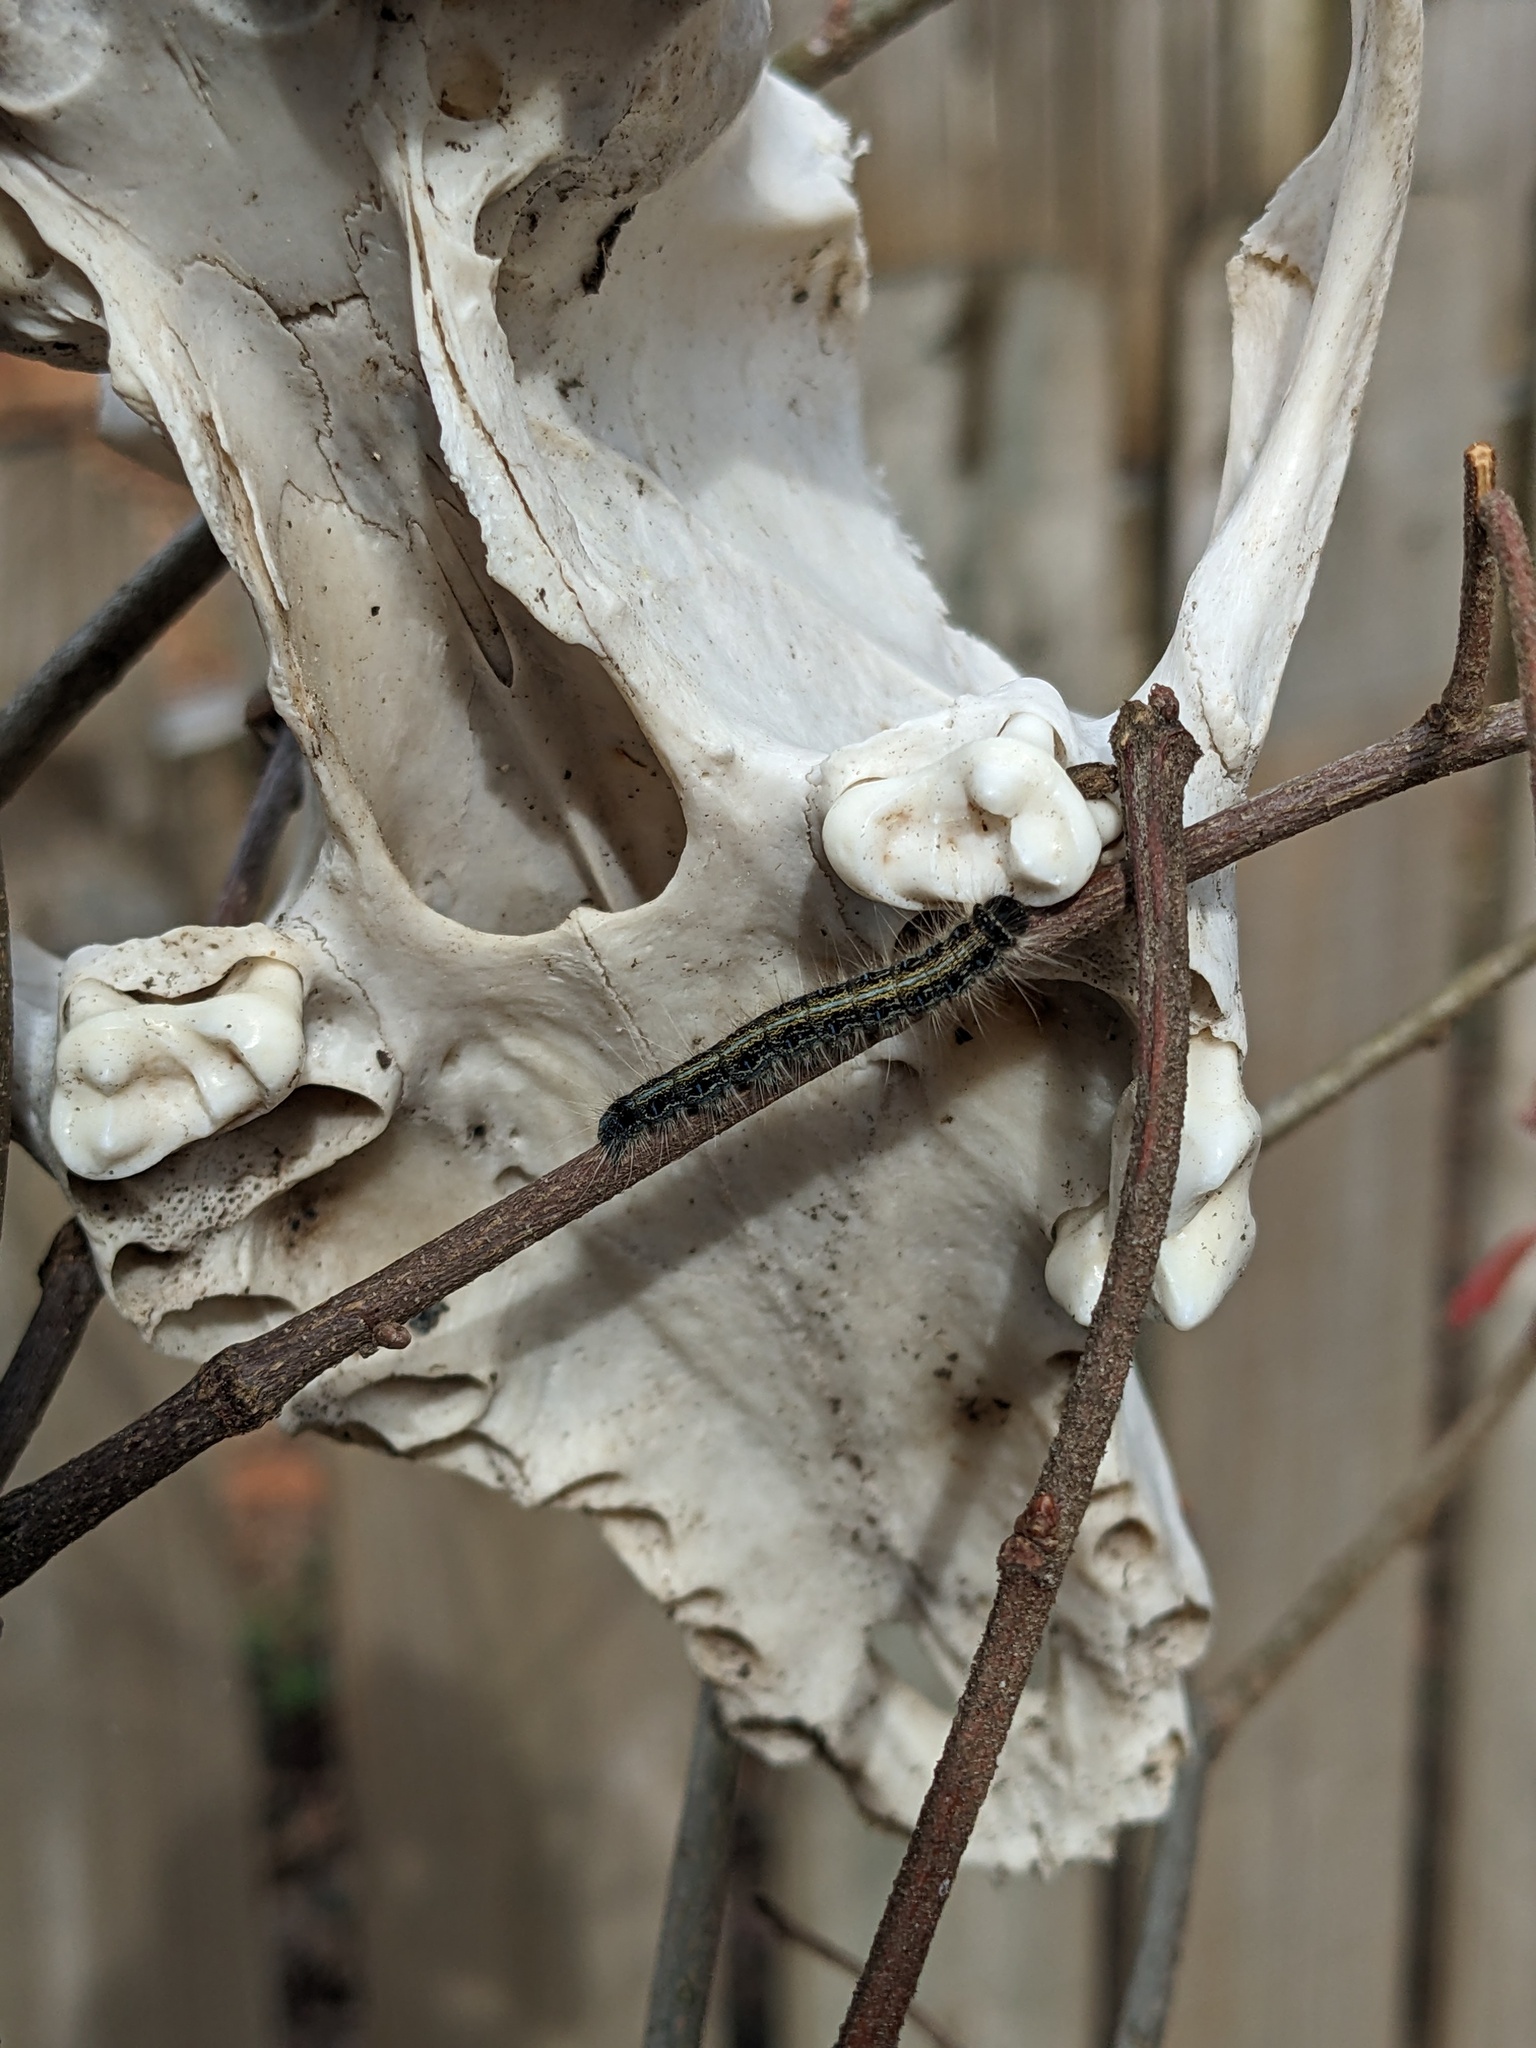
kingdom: Animalia
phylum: Arthropoda
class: Insecta
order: Lepidoptera
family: Lasiocampidae
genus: Malacosoma
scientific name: Malacosoma americana
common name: Eastern tent caterpillar moth
